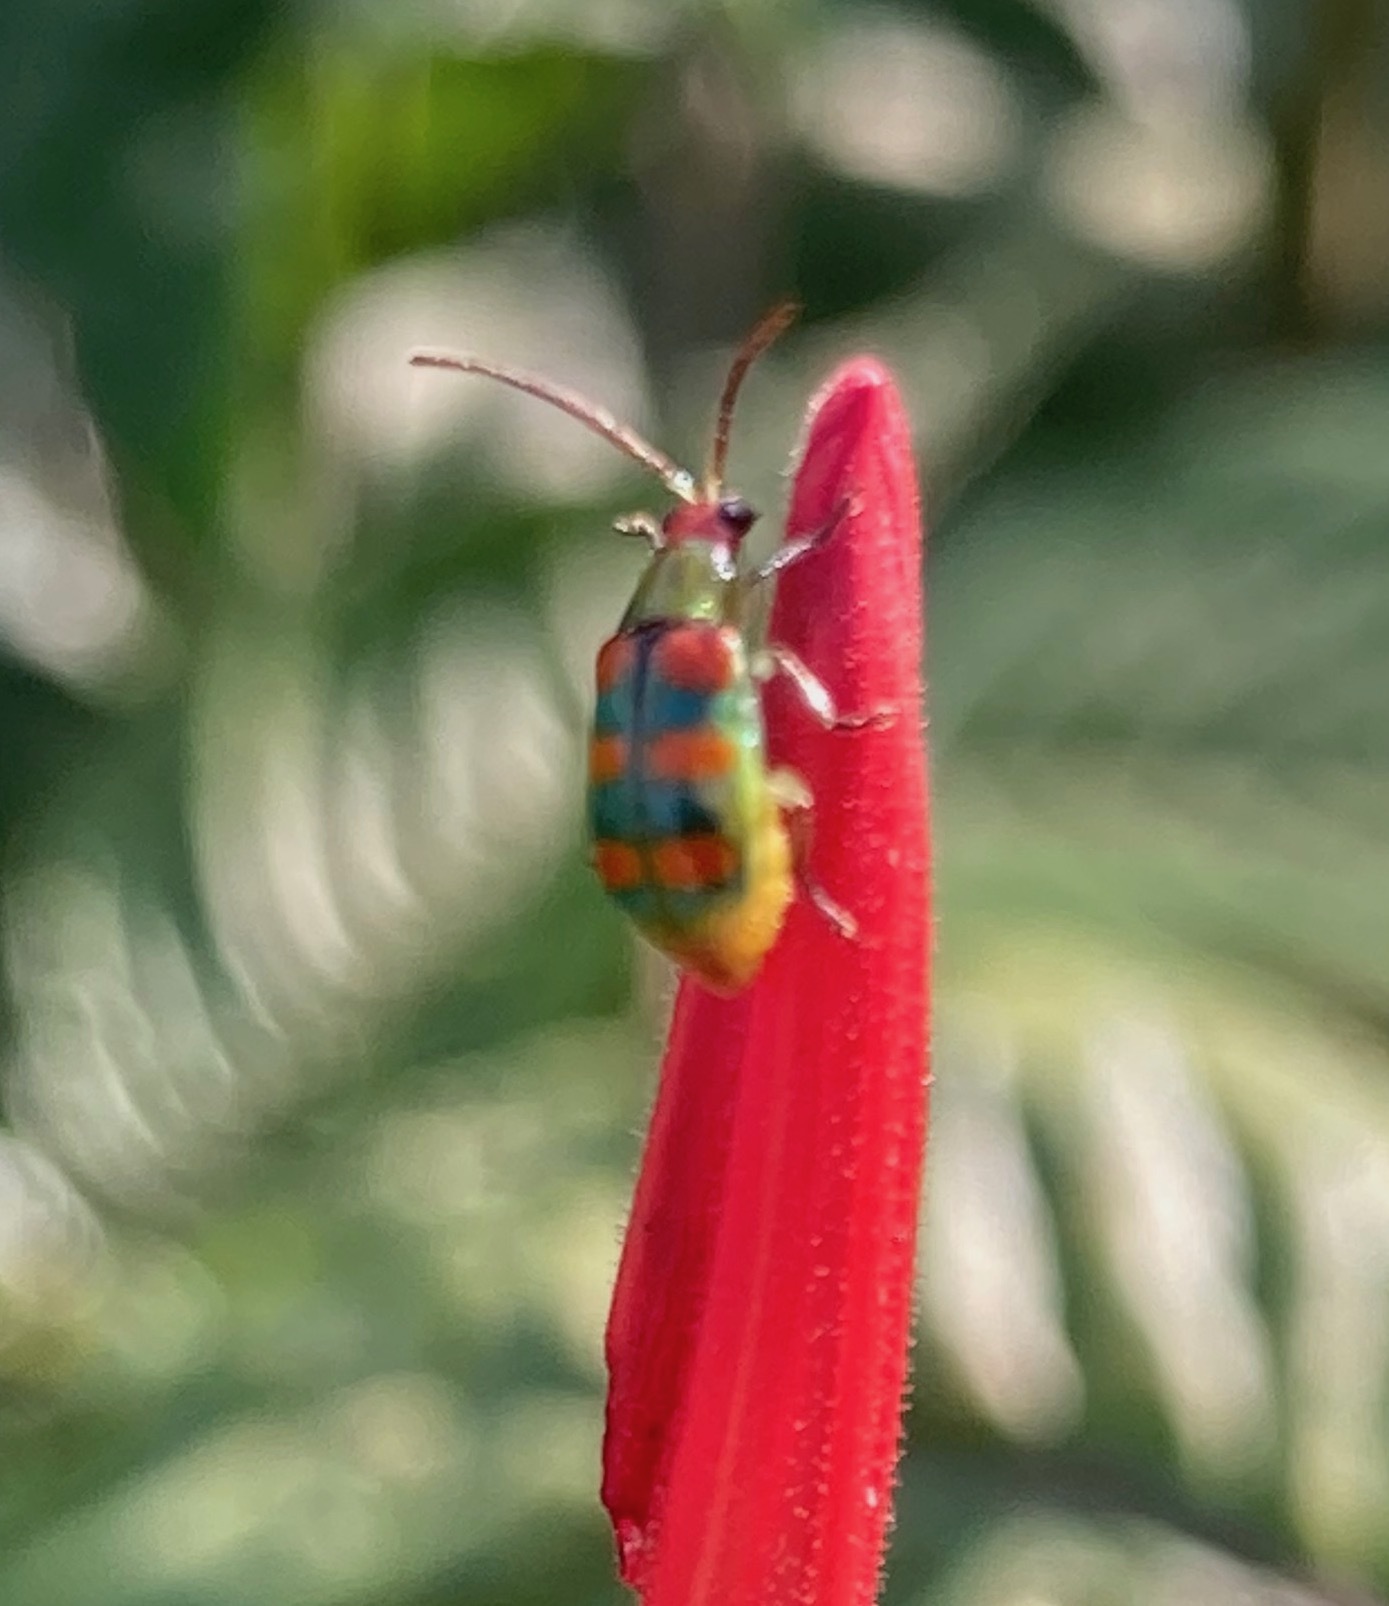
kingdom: Animalia
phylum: Arthropoda
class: Insecta
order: Coleoptera
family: Chrysomelidae
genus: Diabrotica
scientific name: Diabrotica speciosa
